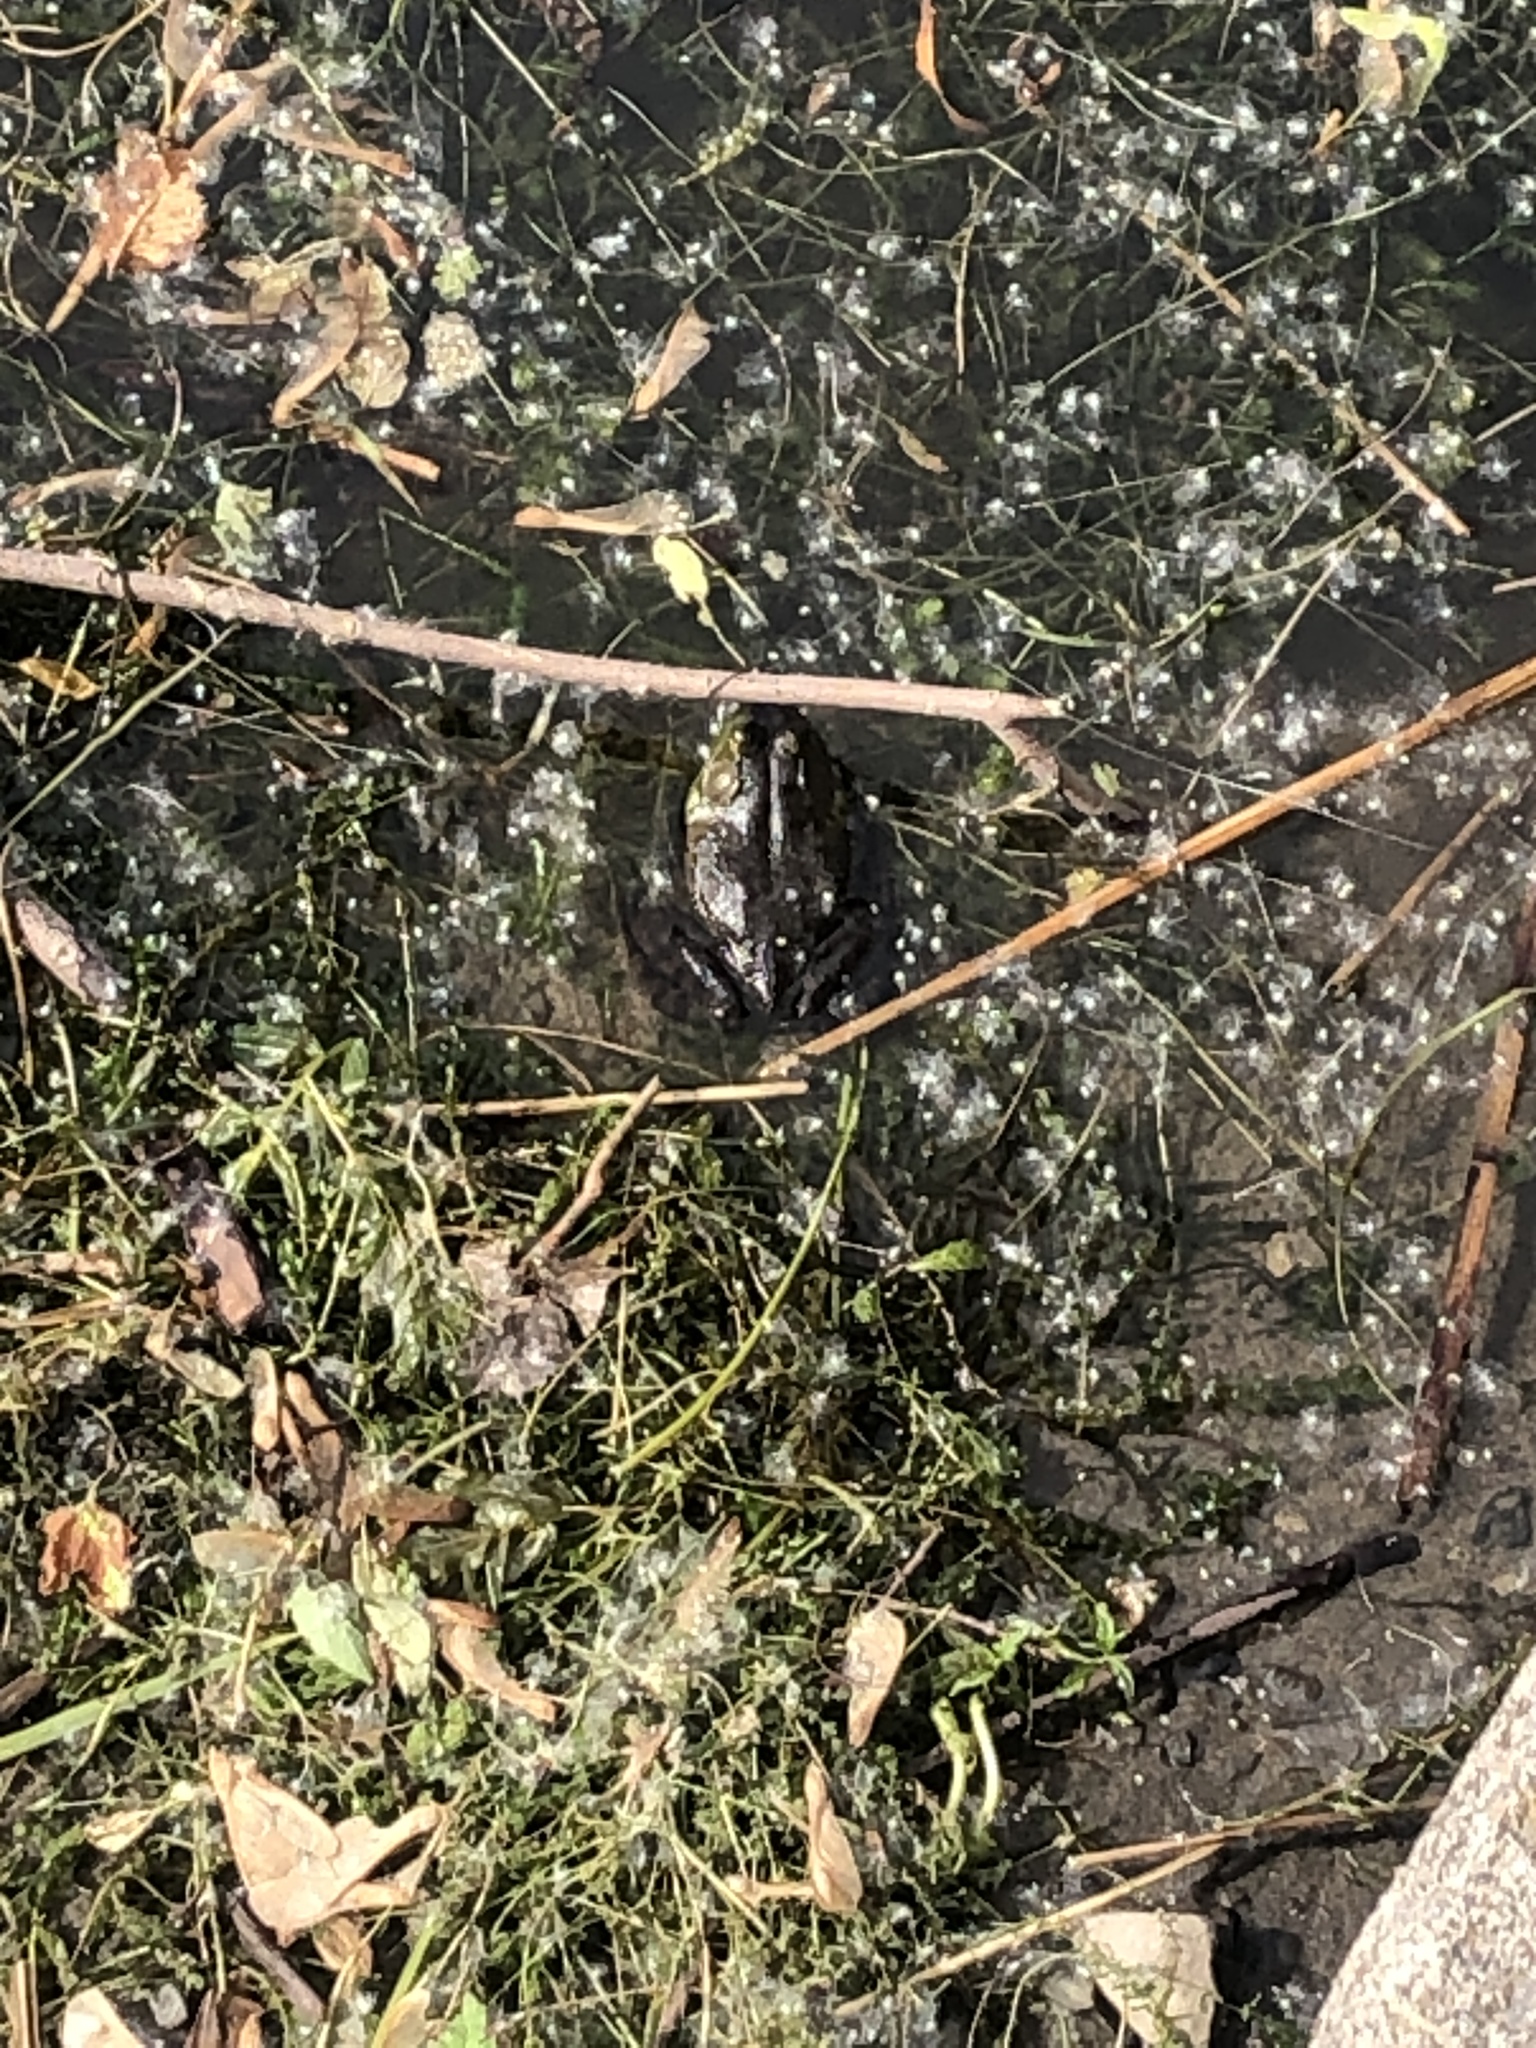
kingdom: Animalia
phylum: Chordata
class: Amphibia
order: Anura
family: Ranidae
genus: Lithobates
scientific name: Lithobates catesbeianus
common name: American bullfrog
